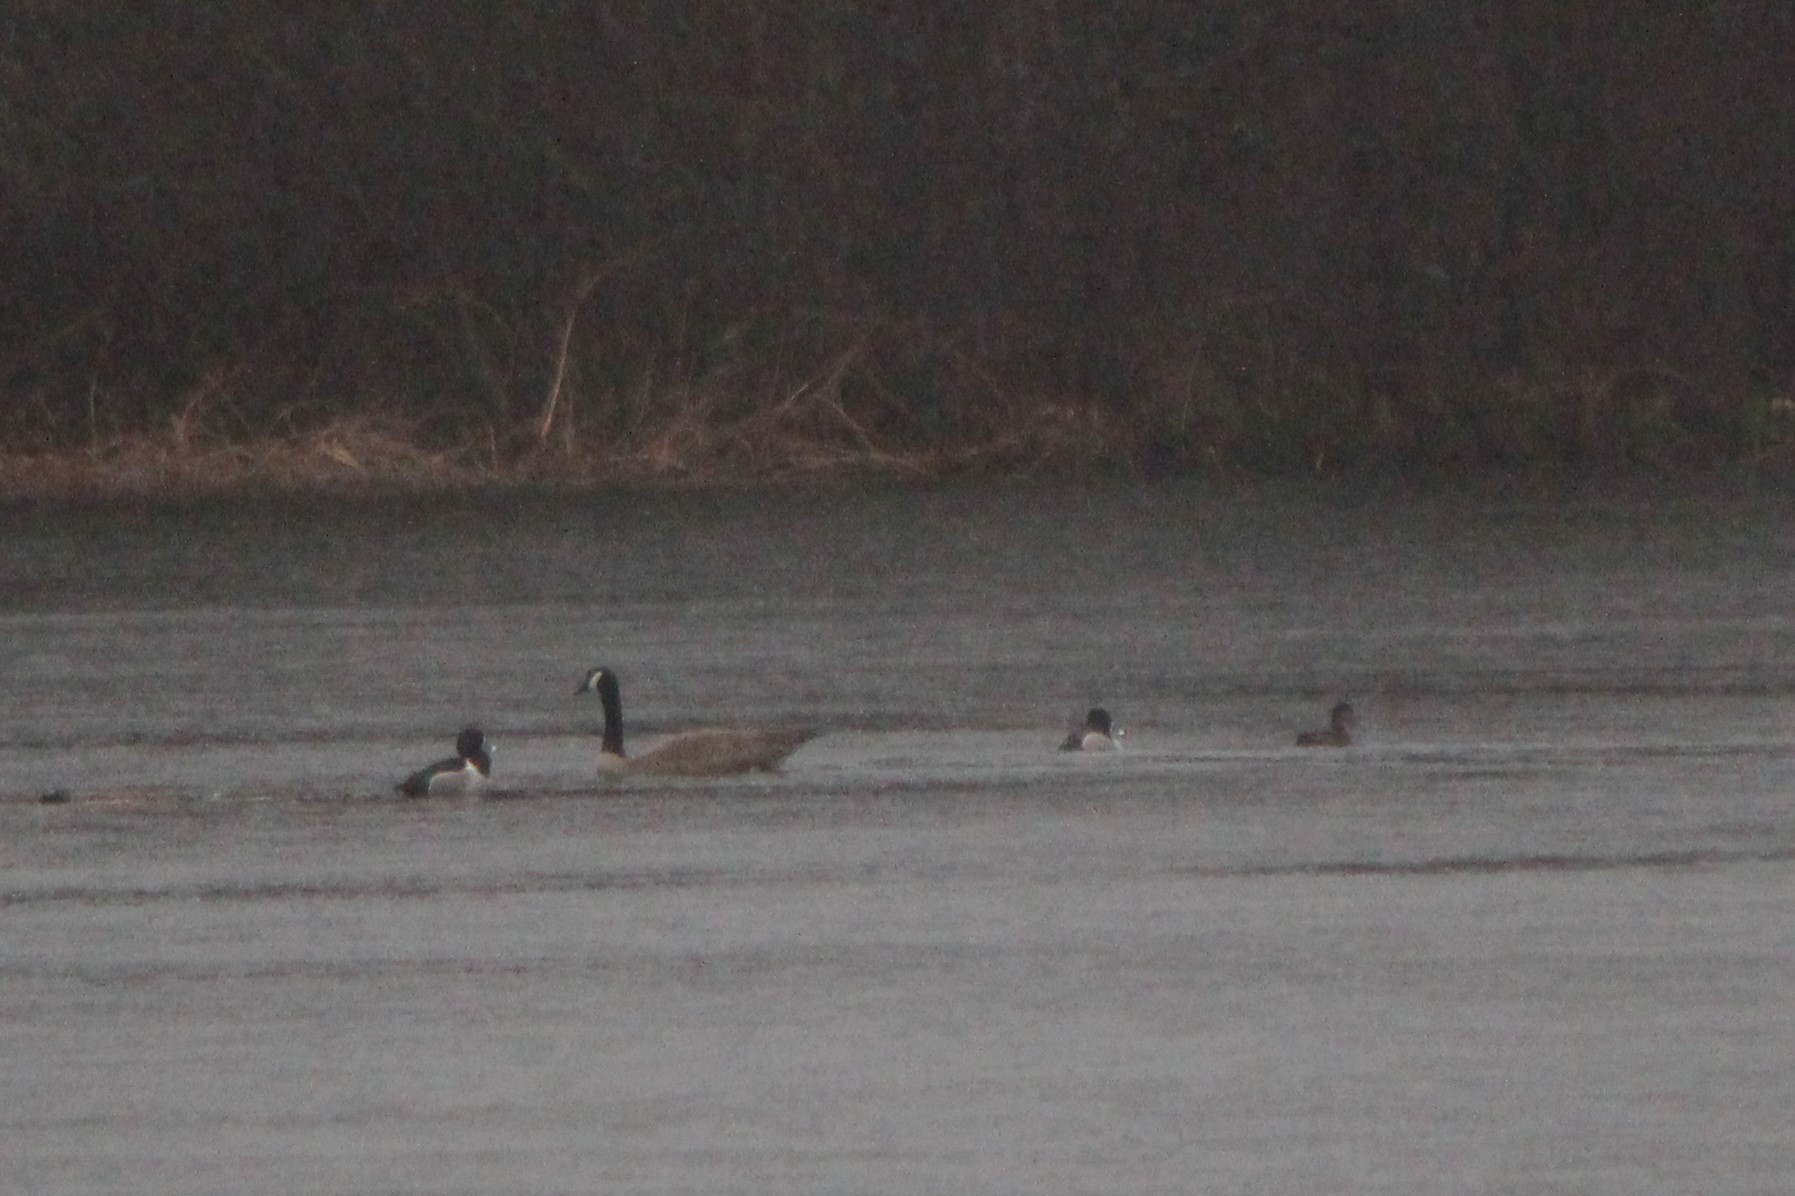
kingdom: Animalia
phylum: Chordata
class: Aves
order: Anseriformes
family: Anatidae
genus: Aythya
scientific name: Aythya collaris
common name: Ring-necked duck
